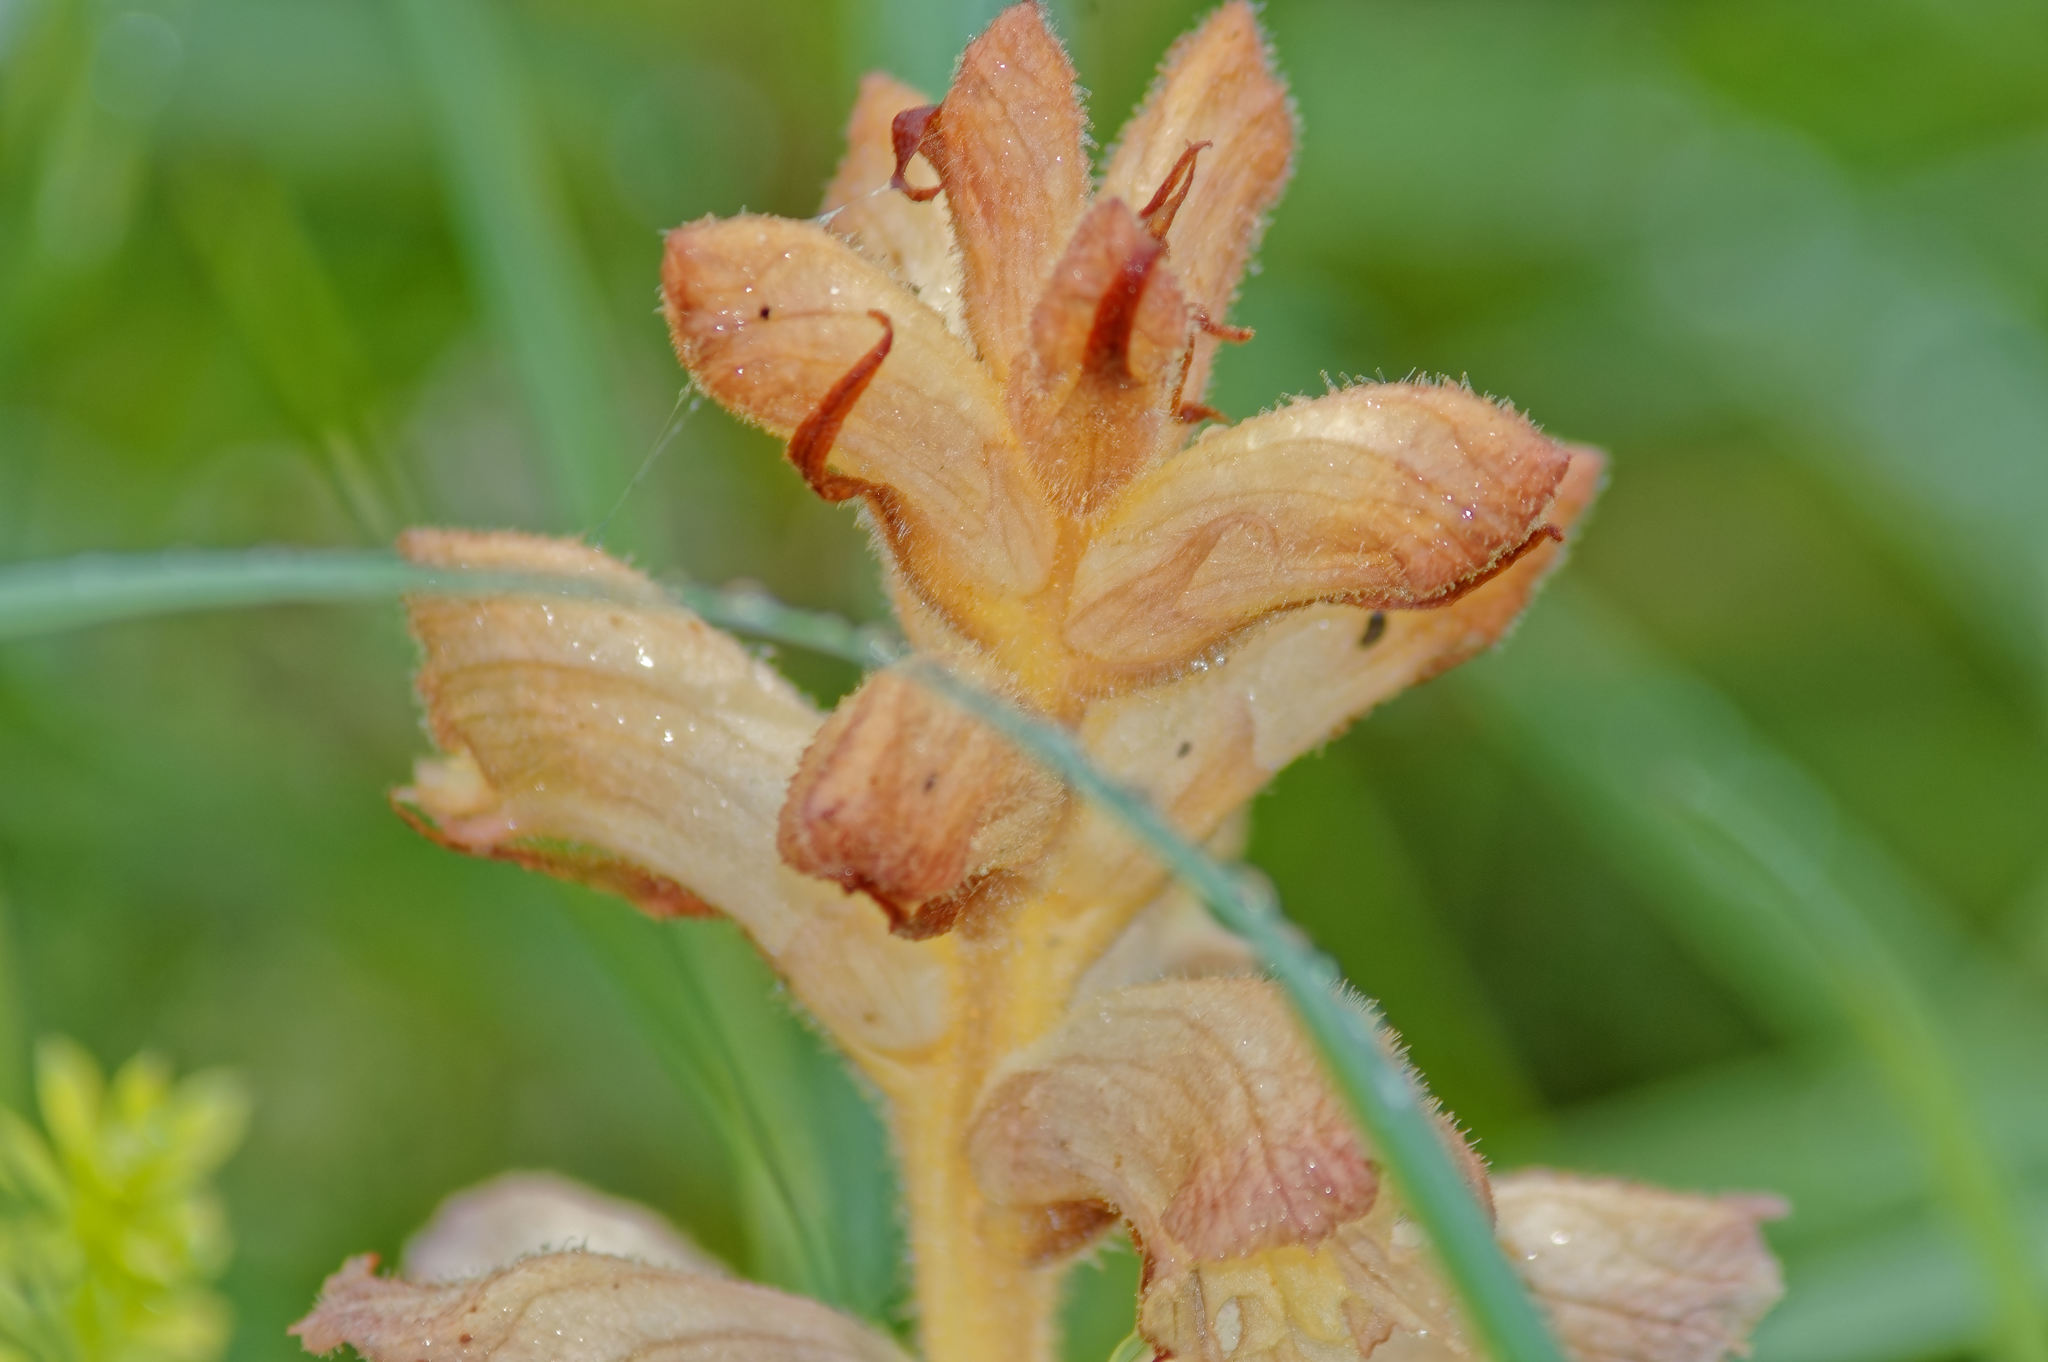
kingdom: Plantae
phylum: Tracheophyta
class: Magnoliopsida
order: Lamiales
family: Orobanchaceae
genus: Orobanche
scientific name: Orobanche caryophyllacea
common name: Bedstraw broomrape
